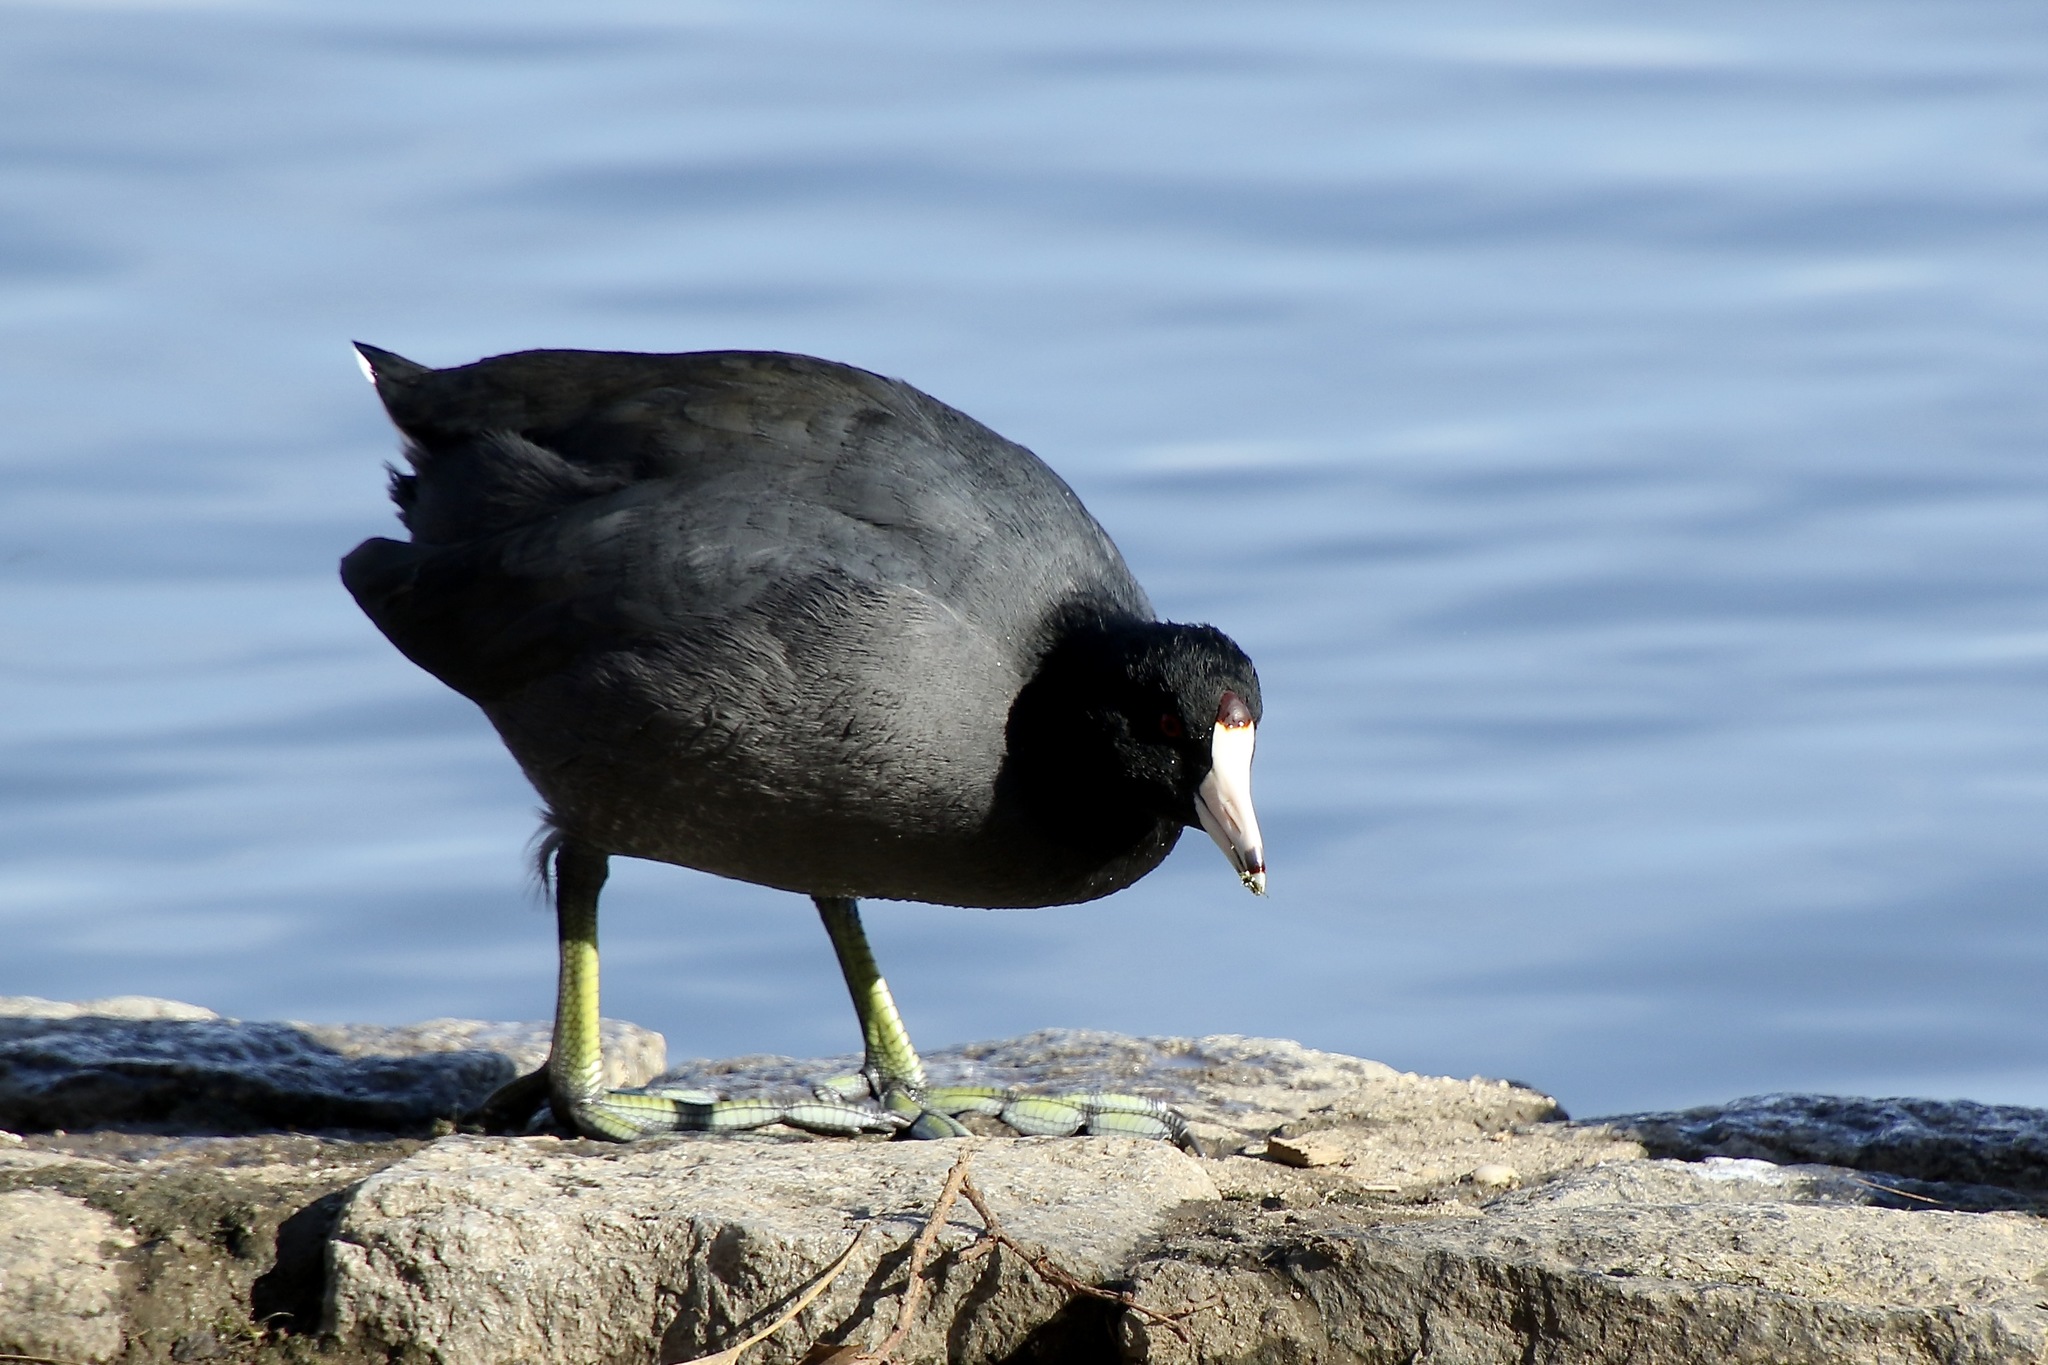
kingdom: Animalia
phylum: Chordata
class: Aves
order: Gruiformes
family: Rallidae
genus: Fulica
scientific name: Fulica americana
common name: American coot
